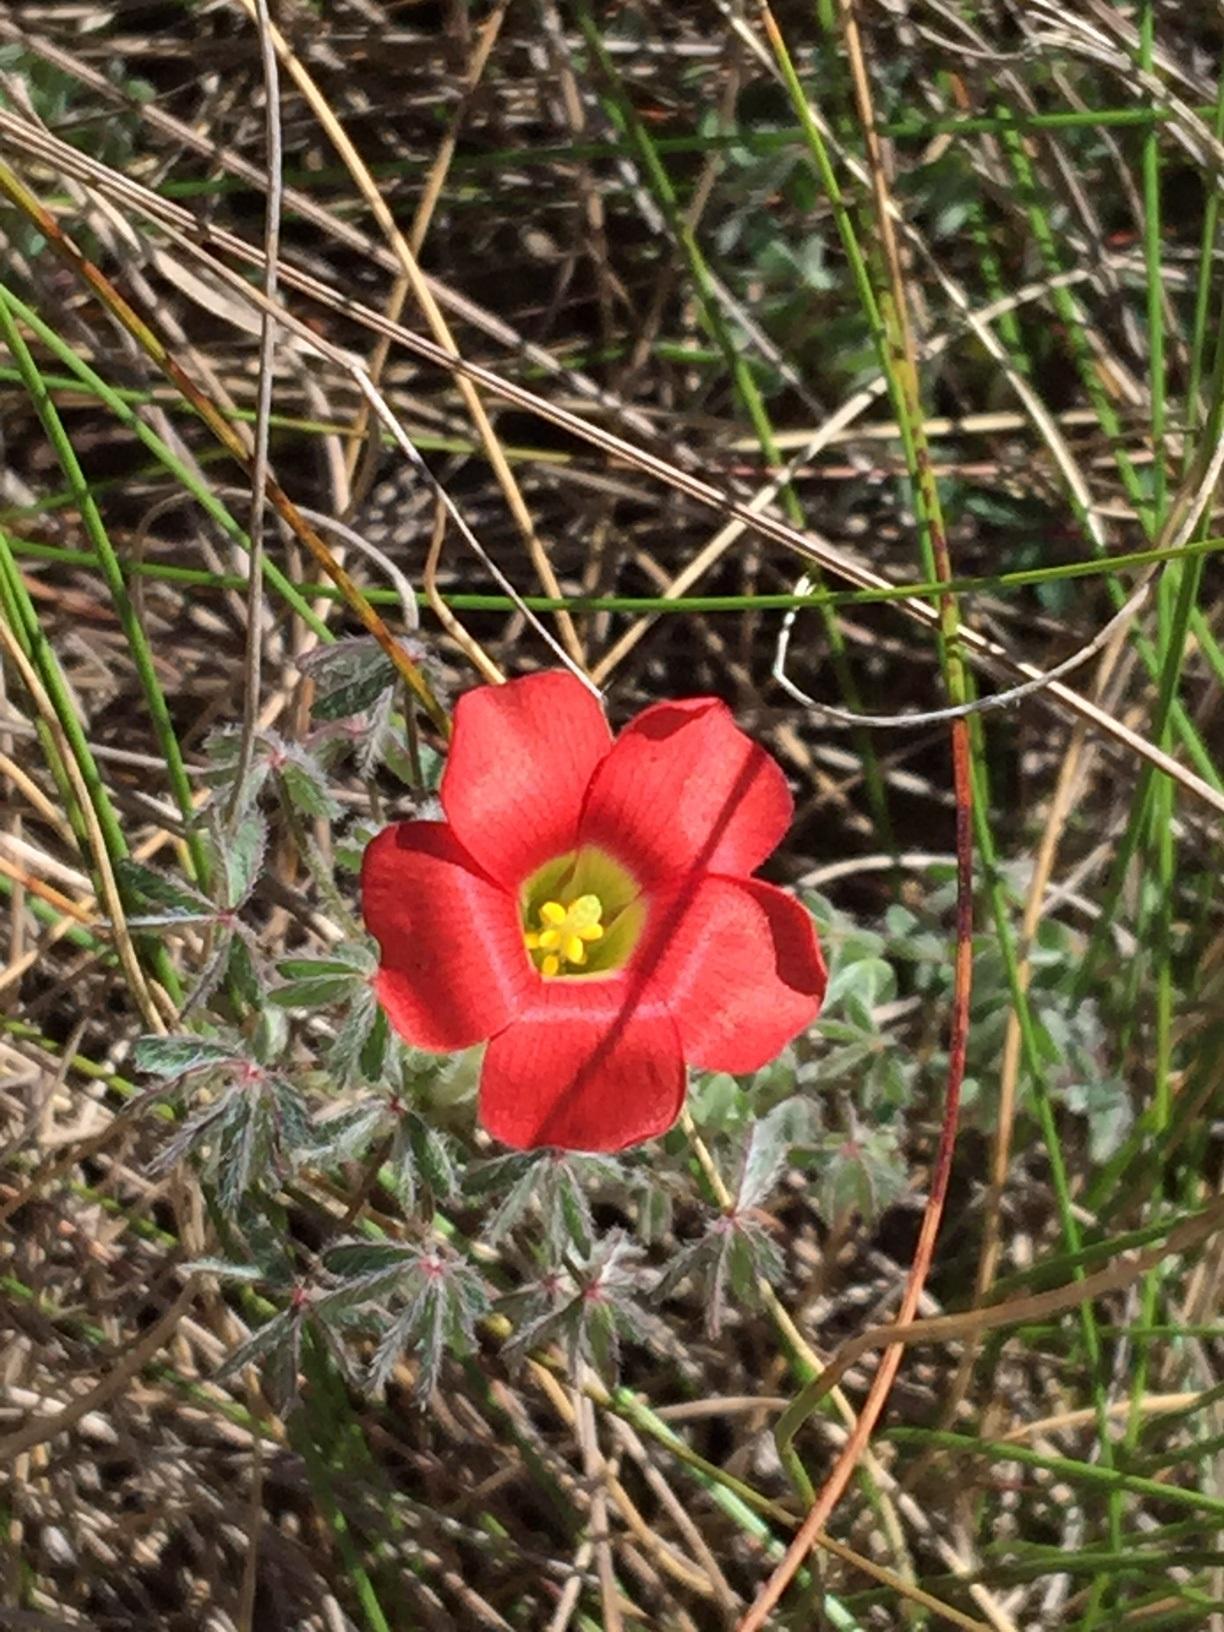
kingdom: Plantae
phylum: Tracheophyta
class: Magnoliopsida
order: Oxalidales
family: Oxalidaceae
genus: Oxalis
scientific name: Oxalis heterophylla
